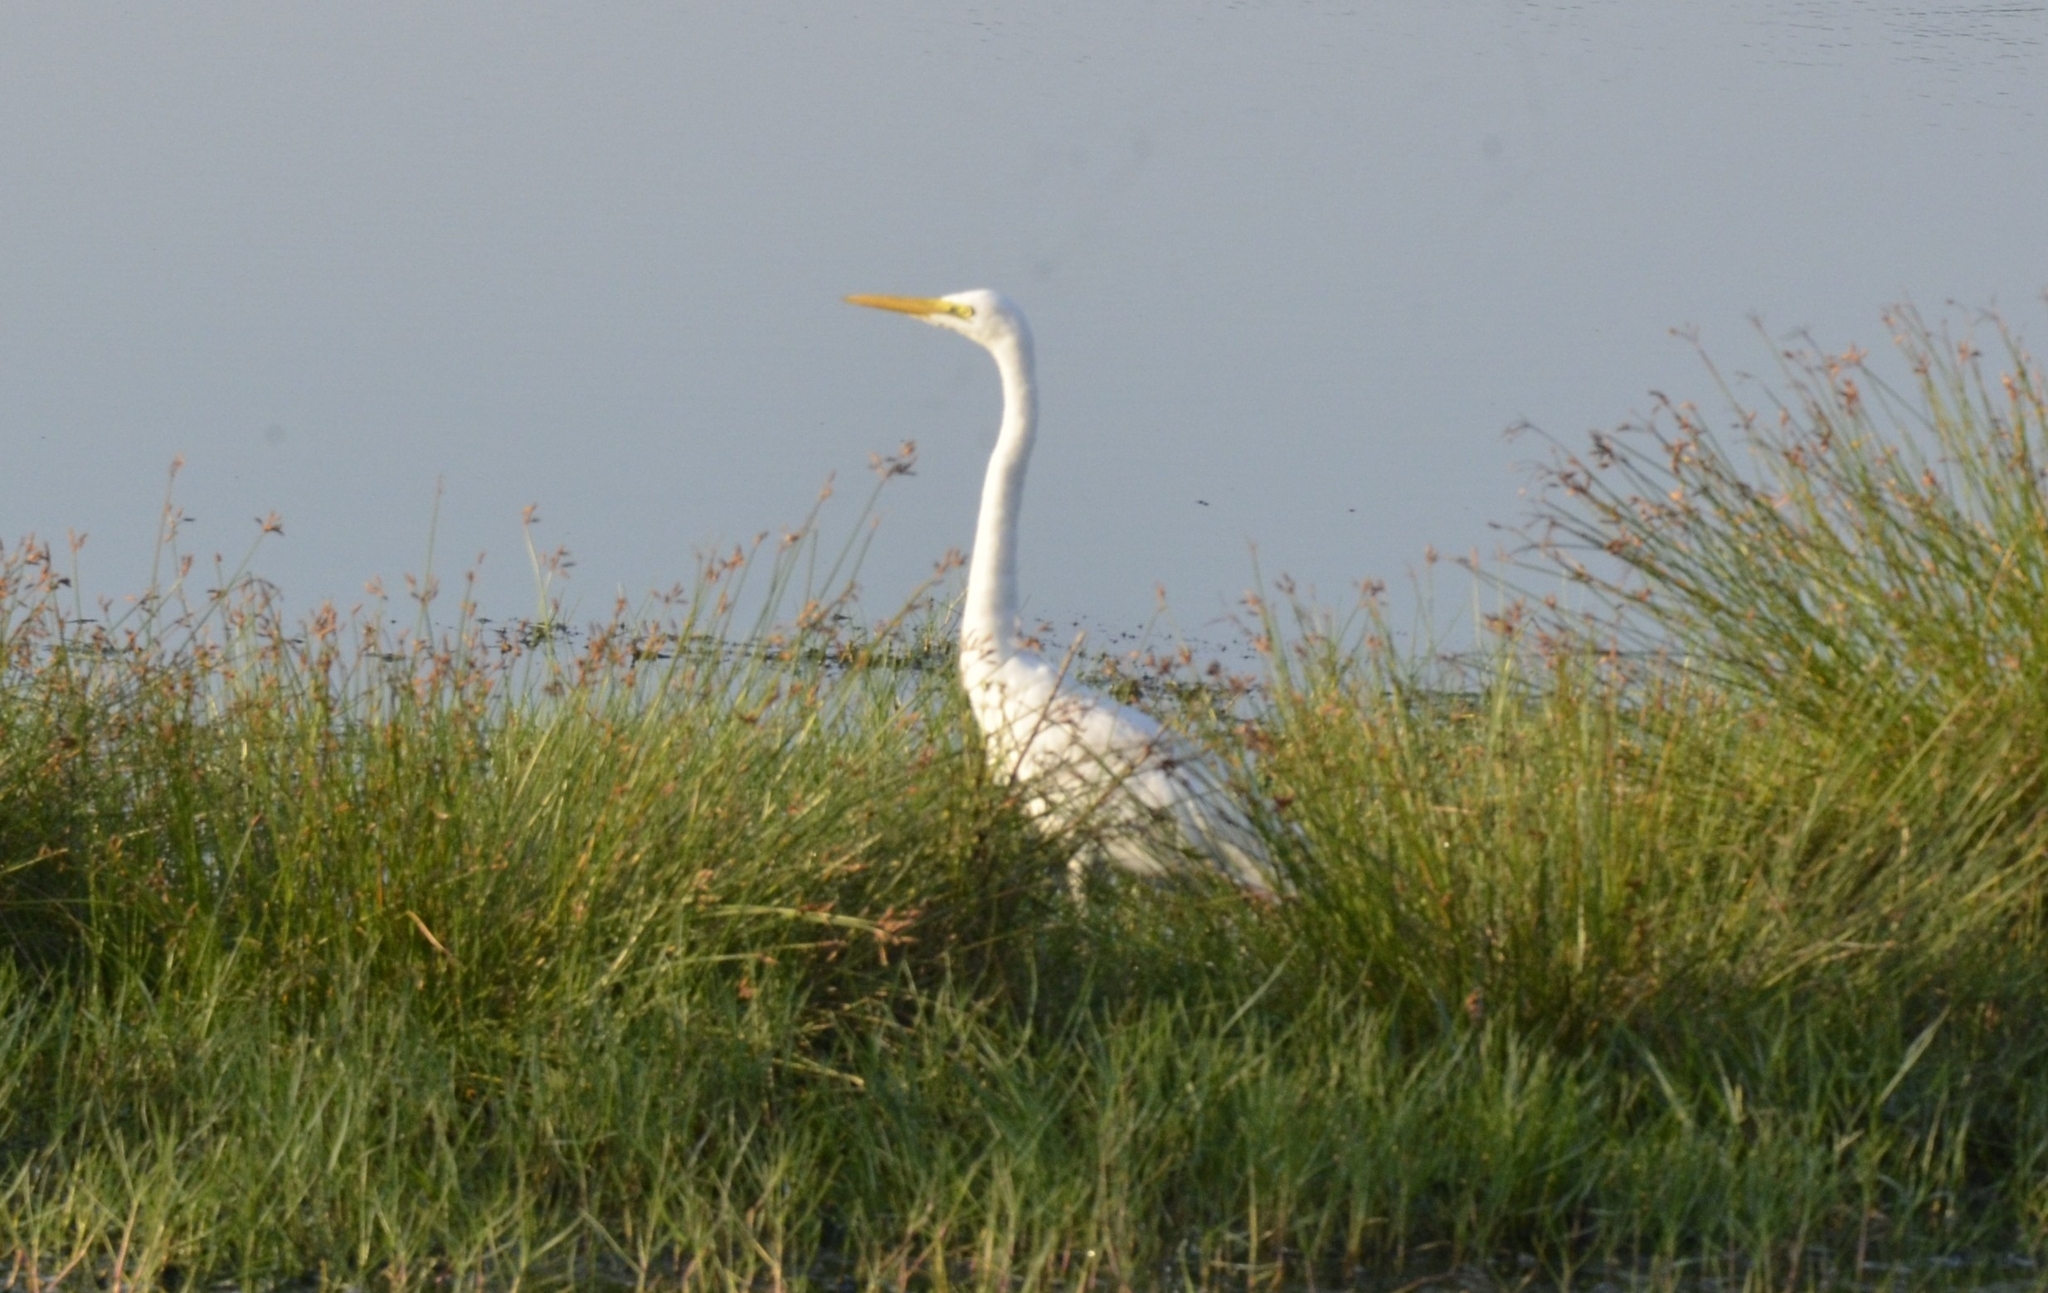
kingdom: Animalia
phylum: Chordata
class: Aves
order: Pelecaniformes
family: Ardeidae
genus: Ardea
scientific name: Ardea alba
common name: Great egret
